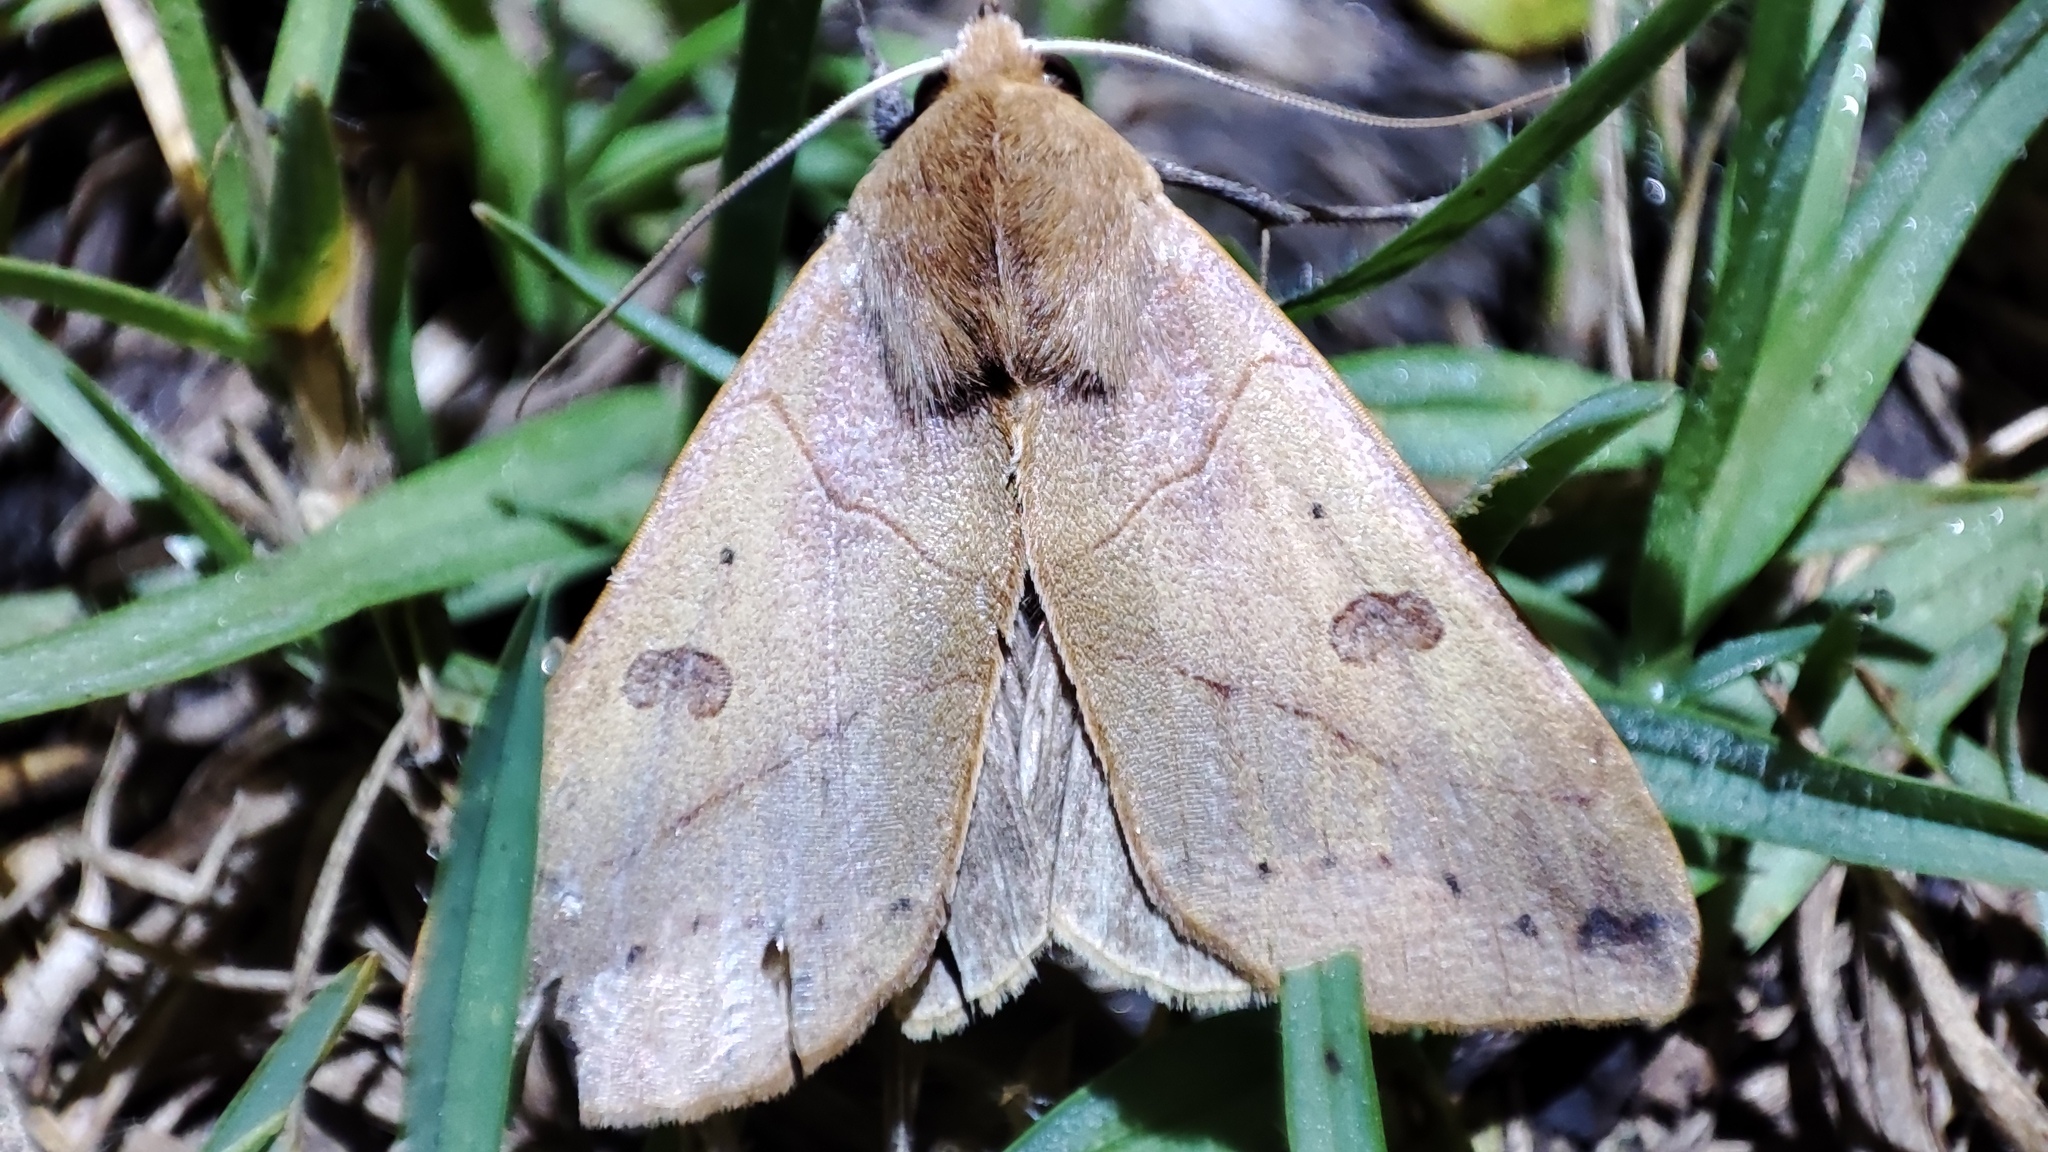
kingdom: Animalia
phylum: Arthropoda
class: Insecta
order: Lepidoptera
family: Erebidae
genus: Hypanua
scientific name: Hypanua xylina
